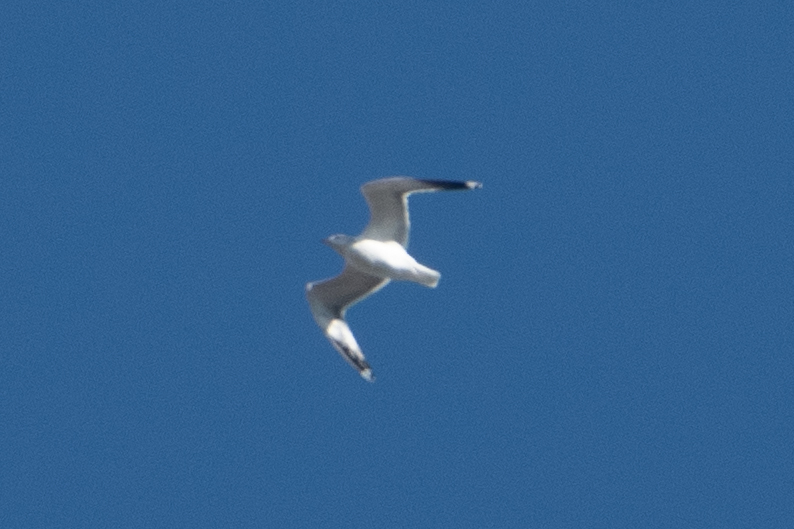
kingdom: Animalia
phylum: Chordata
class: Aves
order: Charadriiformes
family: Laridae
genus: Larus
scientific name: Larus
